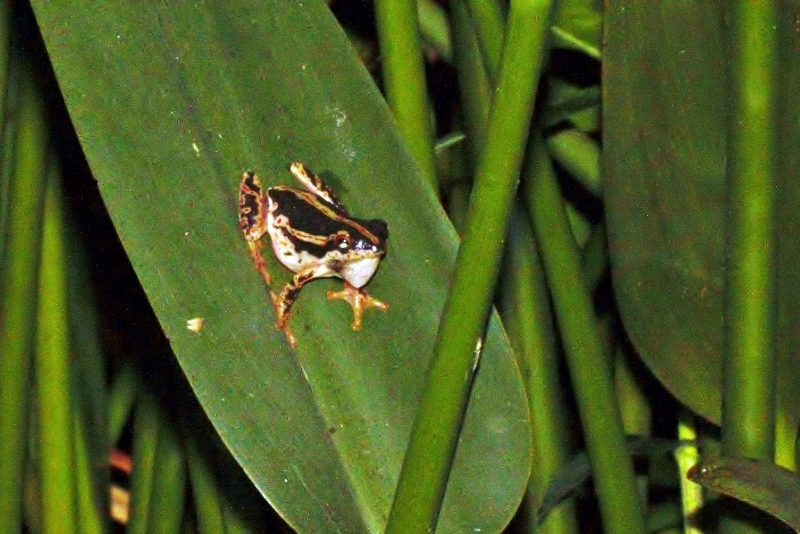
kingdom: Animalia
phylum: Chordata
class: Amphibia
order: Anura
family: Hyperoliidae
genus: Hyperolius
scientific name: Hyperolius marmoratus
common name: Painted reed frog
